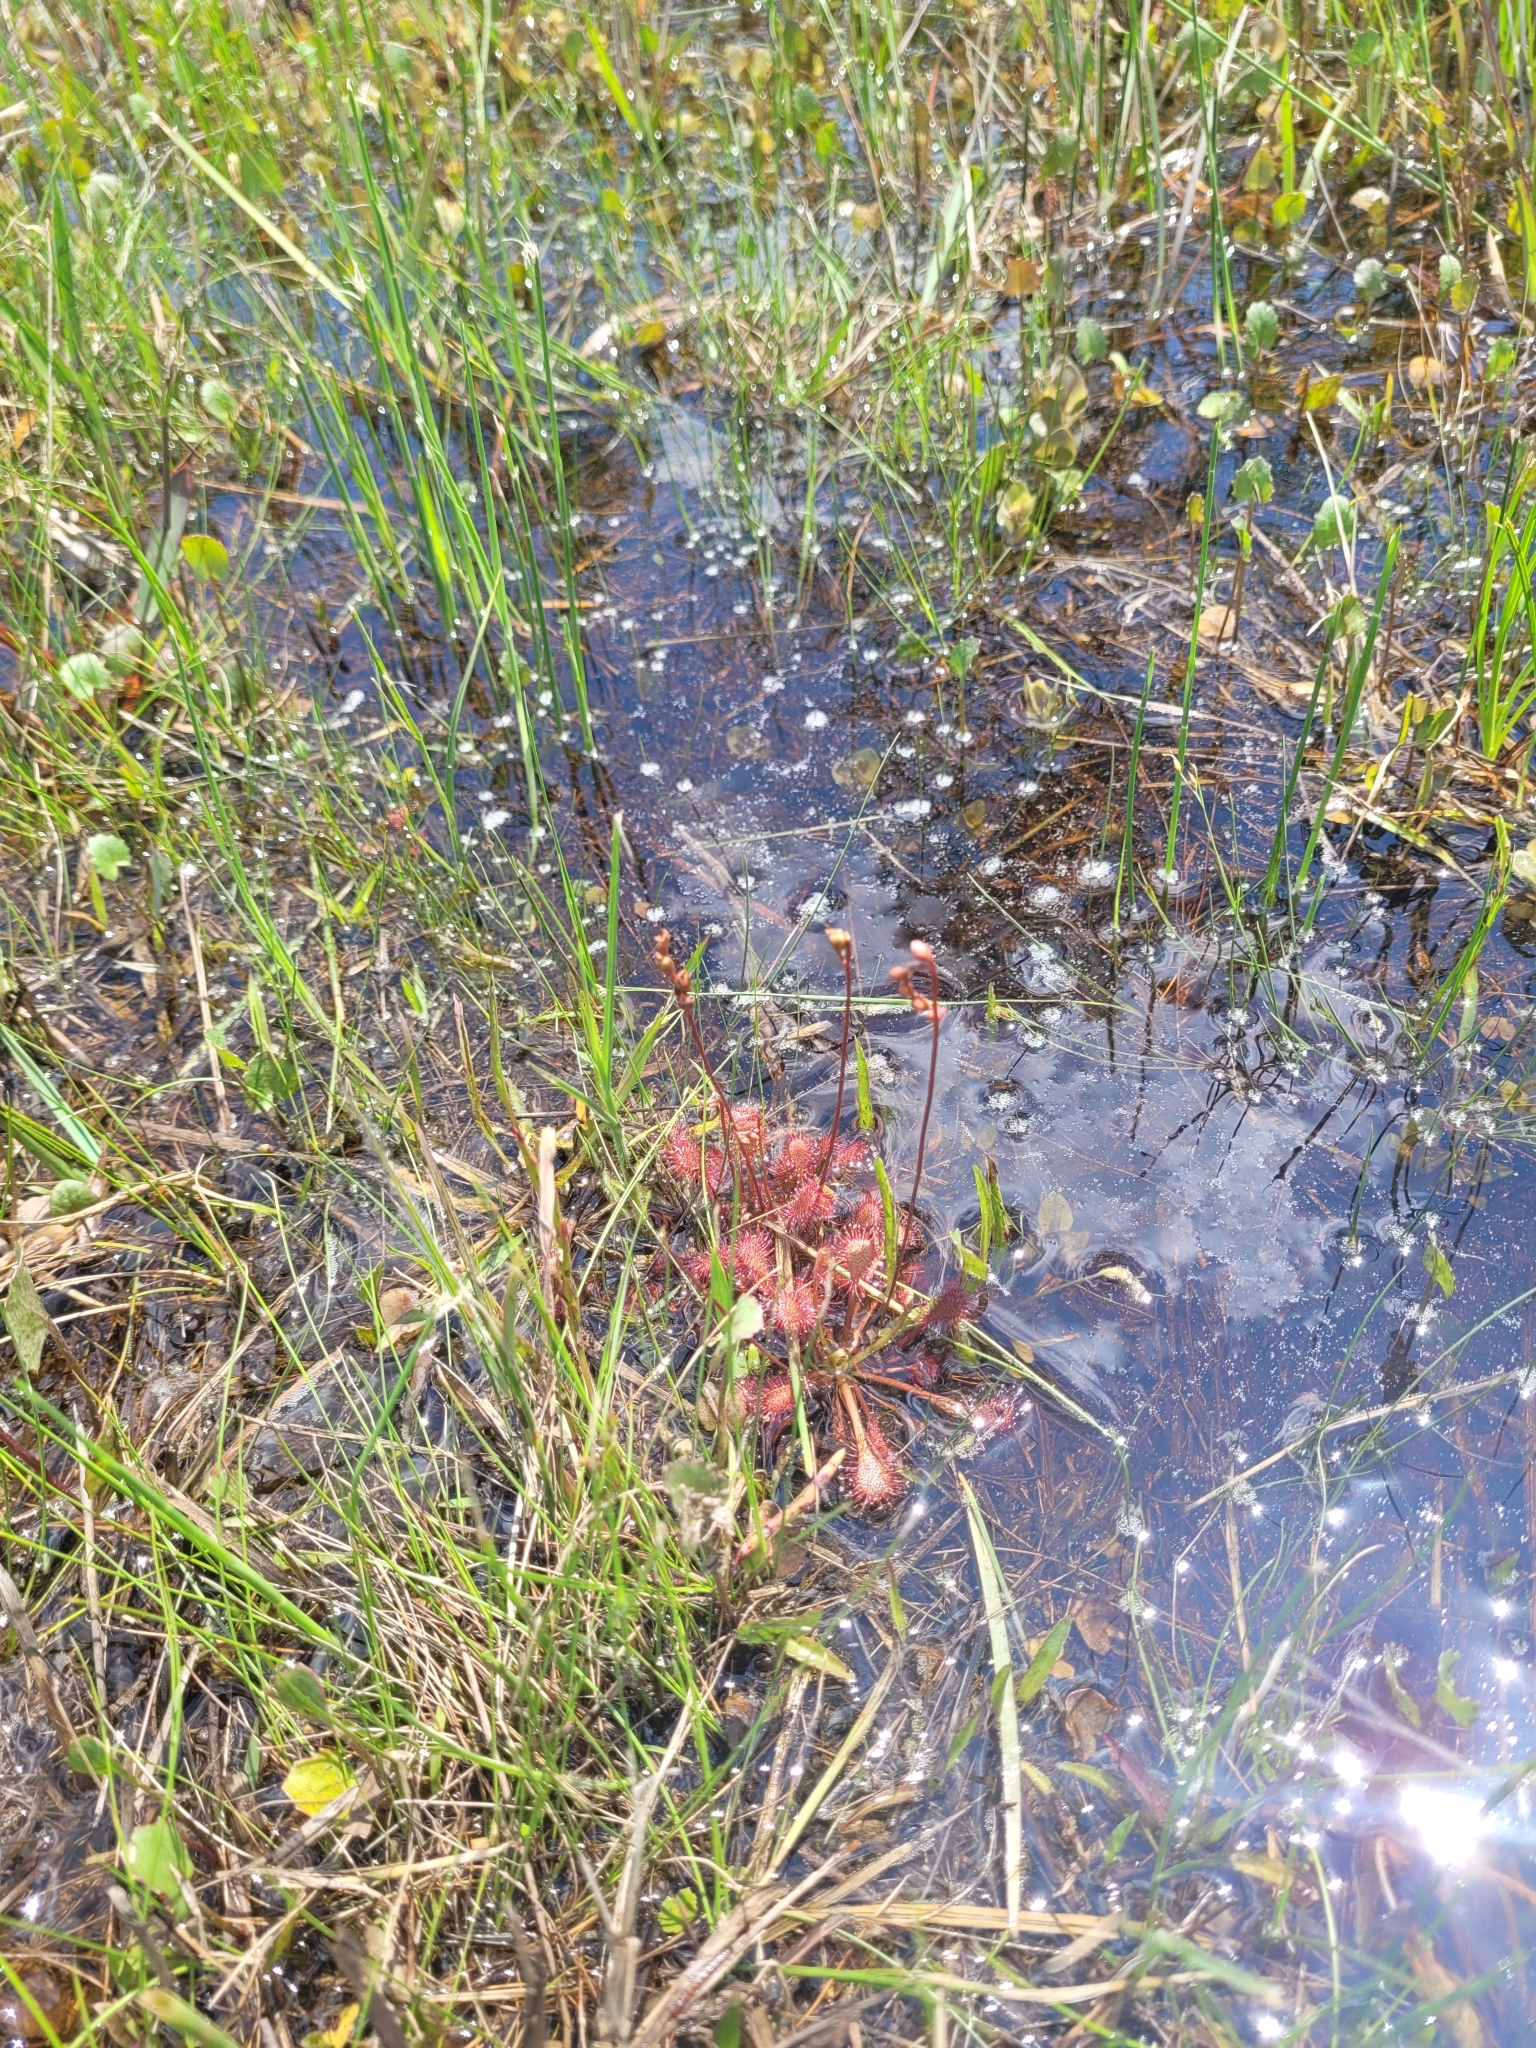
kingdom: Plantae
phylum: Tracheophyta
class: Magnoliopsida
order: Caryophyllales
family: Droseraceae
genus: Drosera
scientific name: Drosera capillaris
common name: Pink sundew
